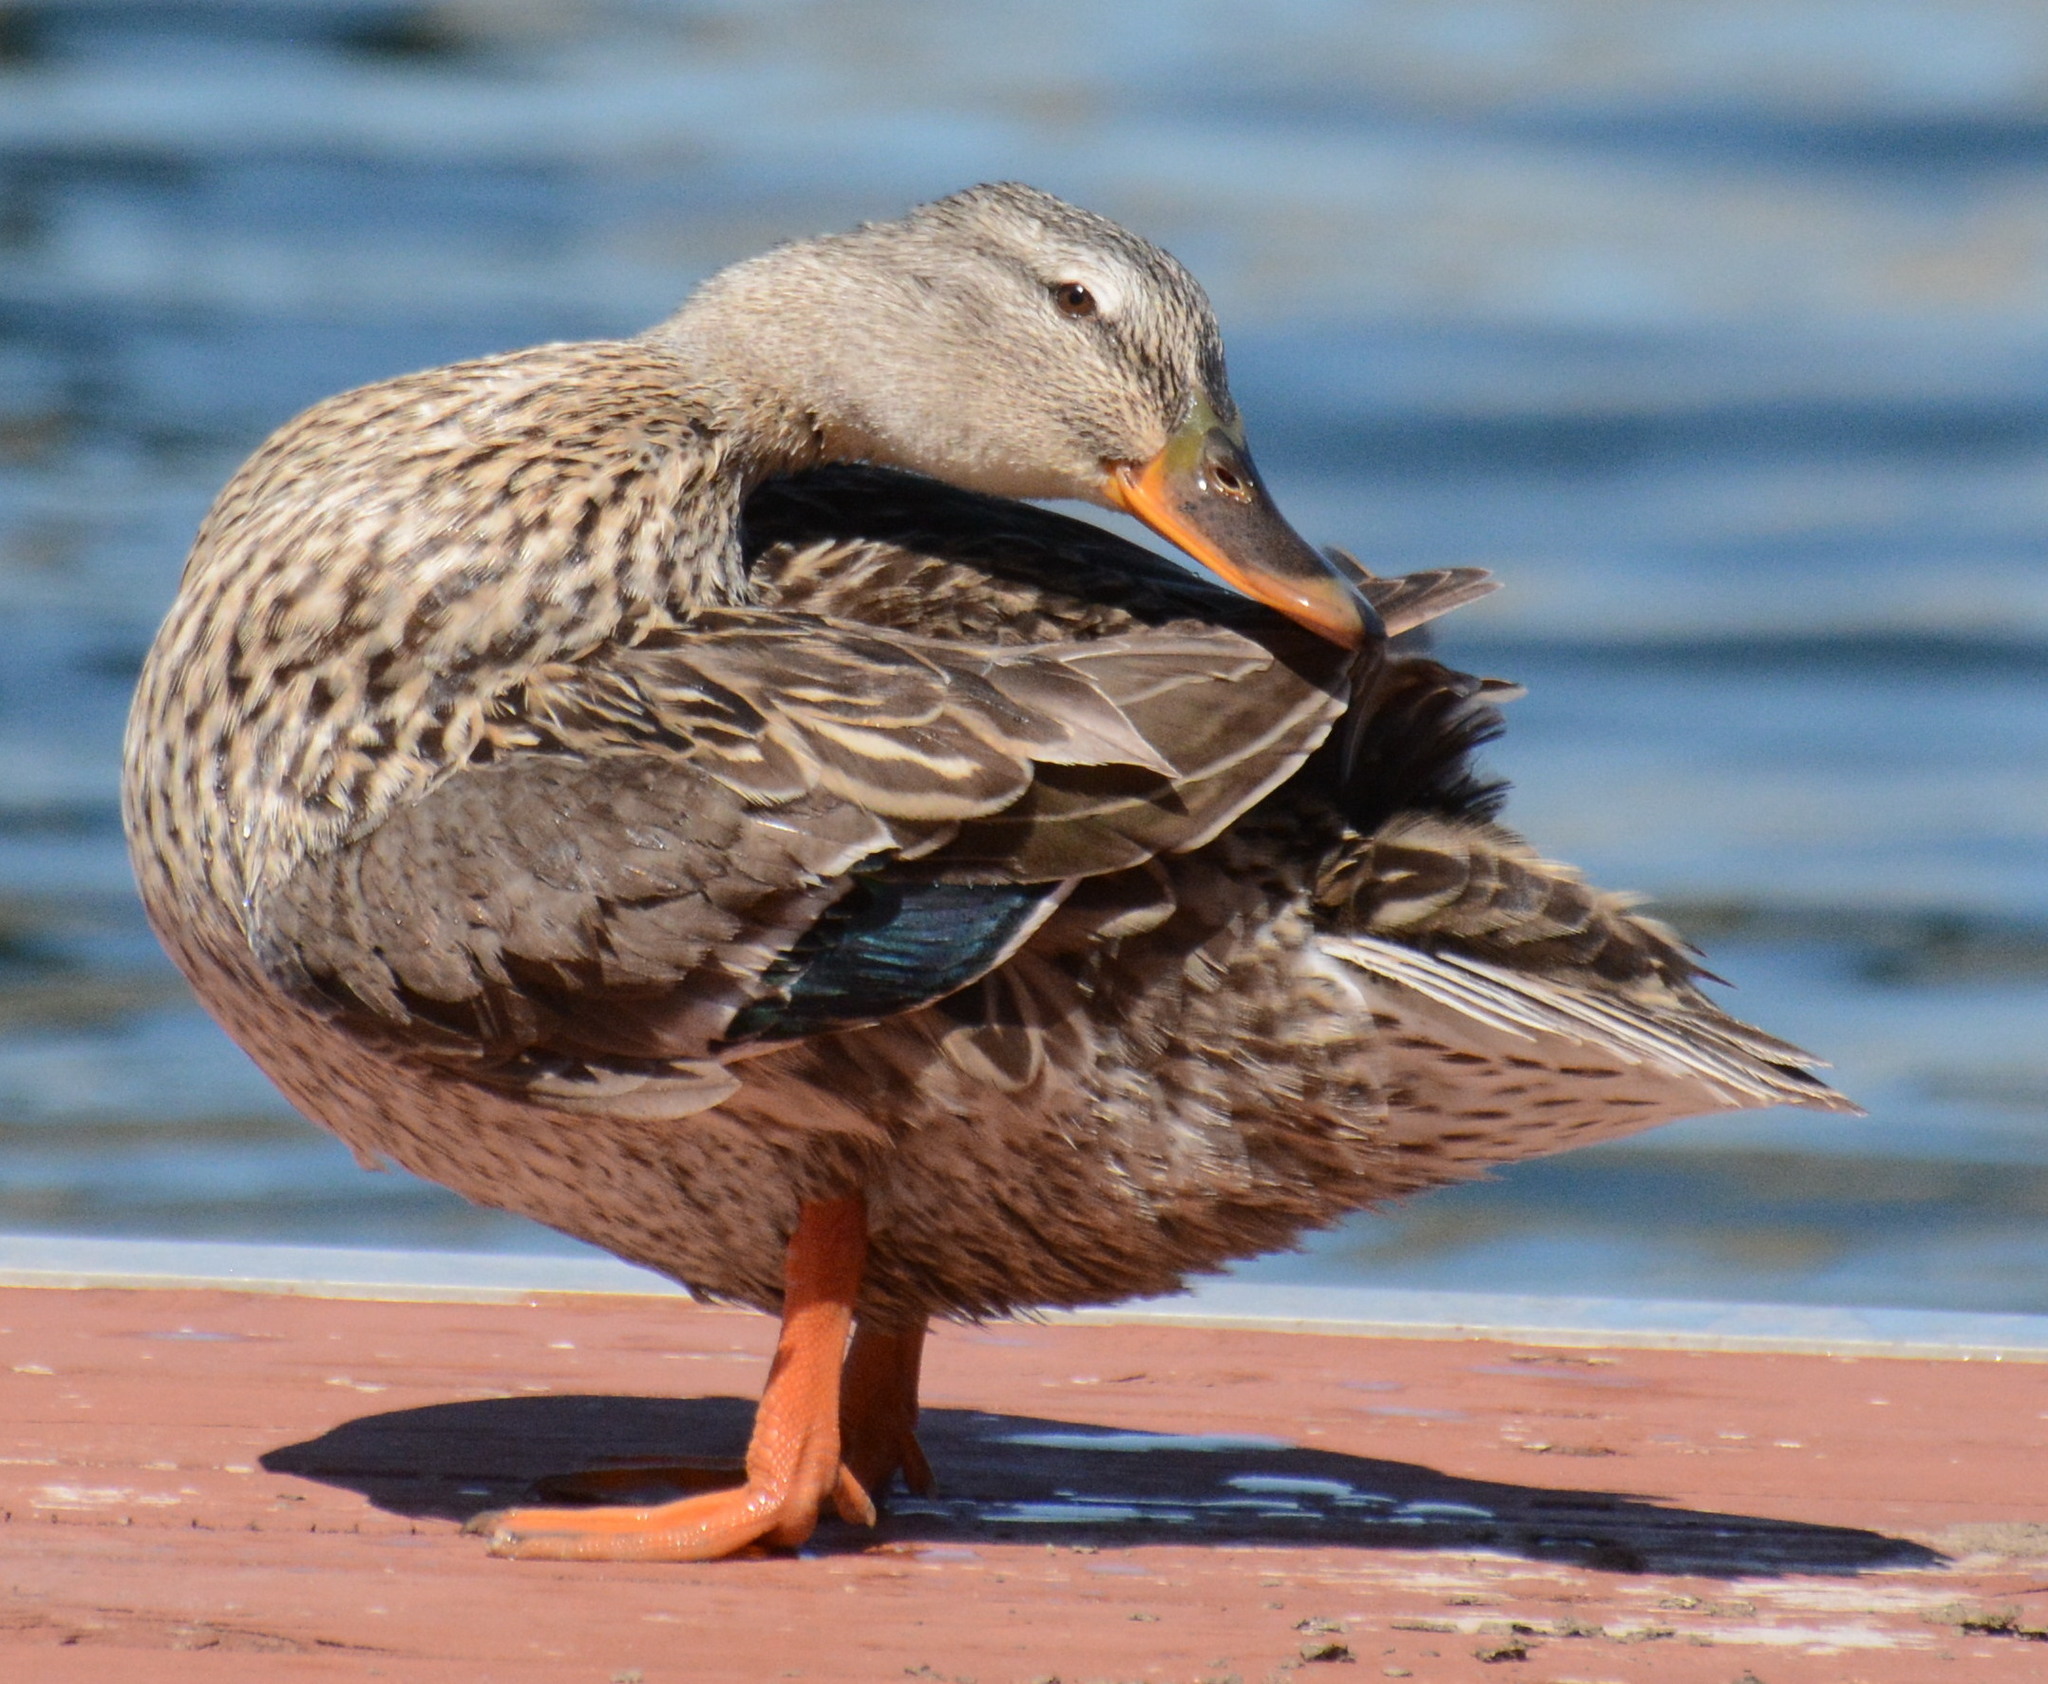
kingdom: Animalia
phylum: Chordata
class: Aves
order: Anseriformes
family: Anatidae
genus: Anas
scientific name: Anas platyrhynchos
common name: Mallard
